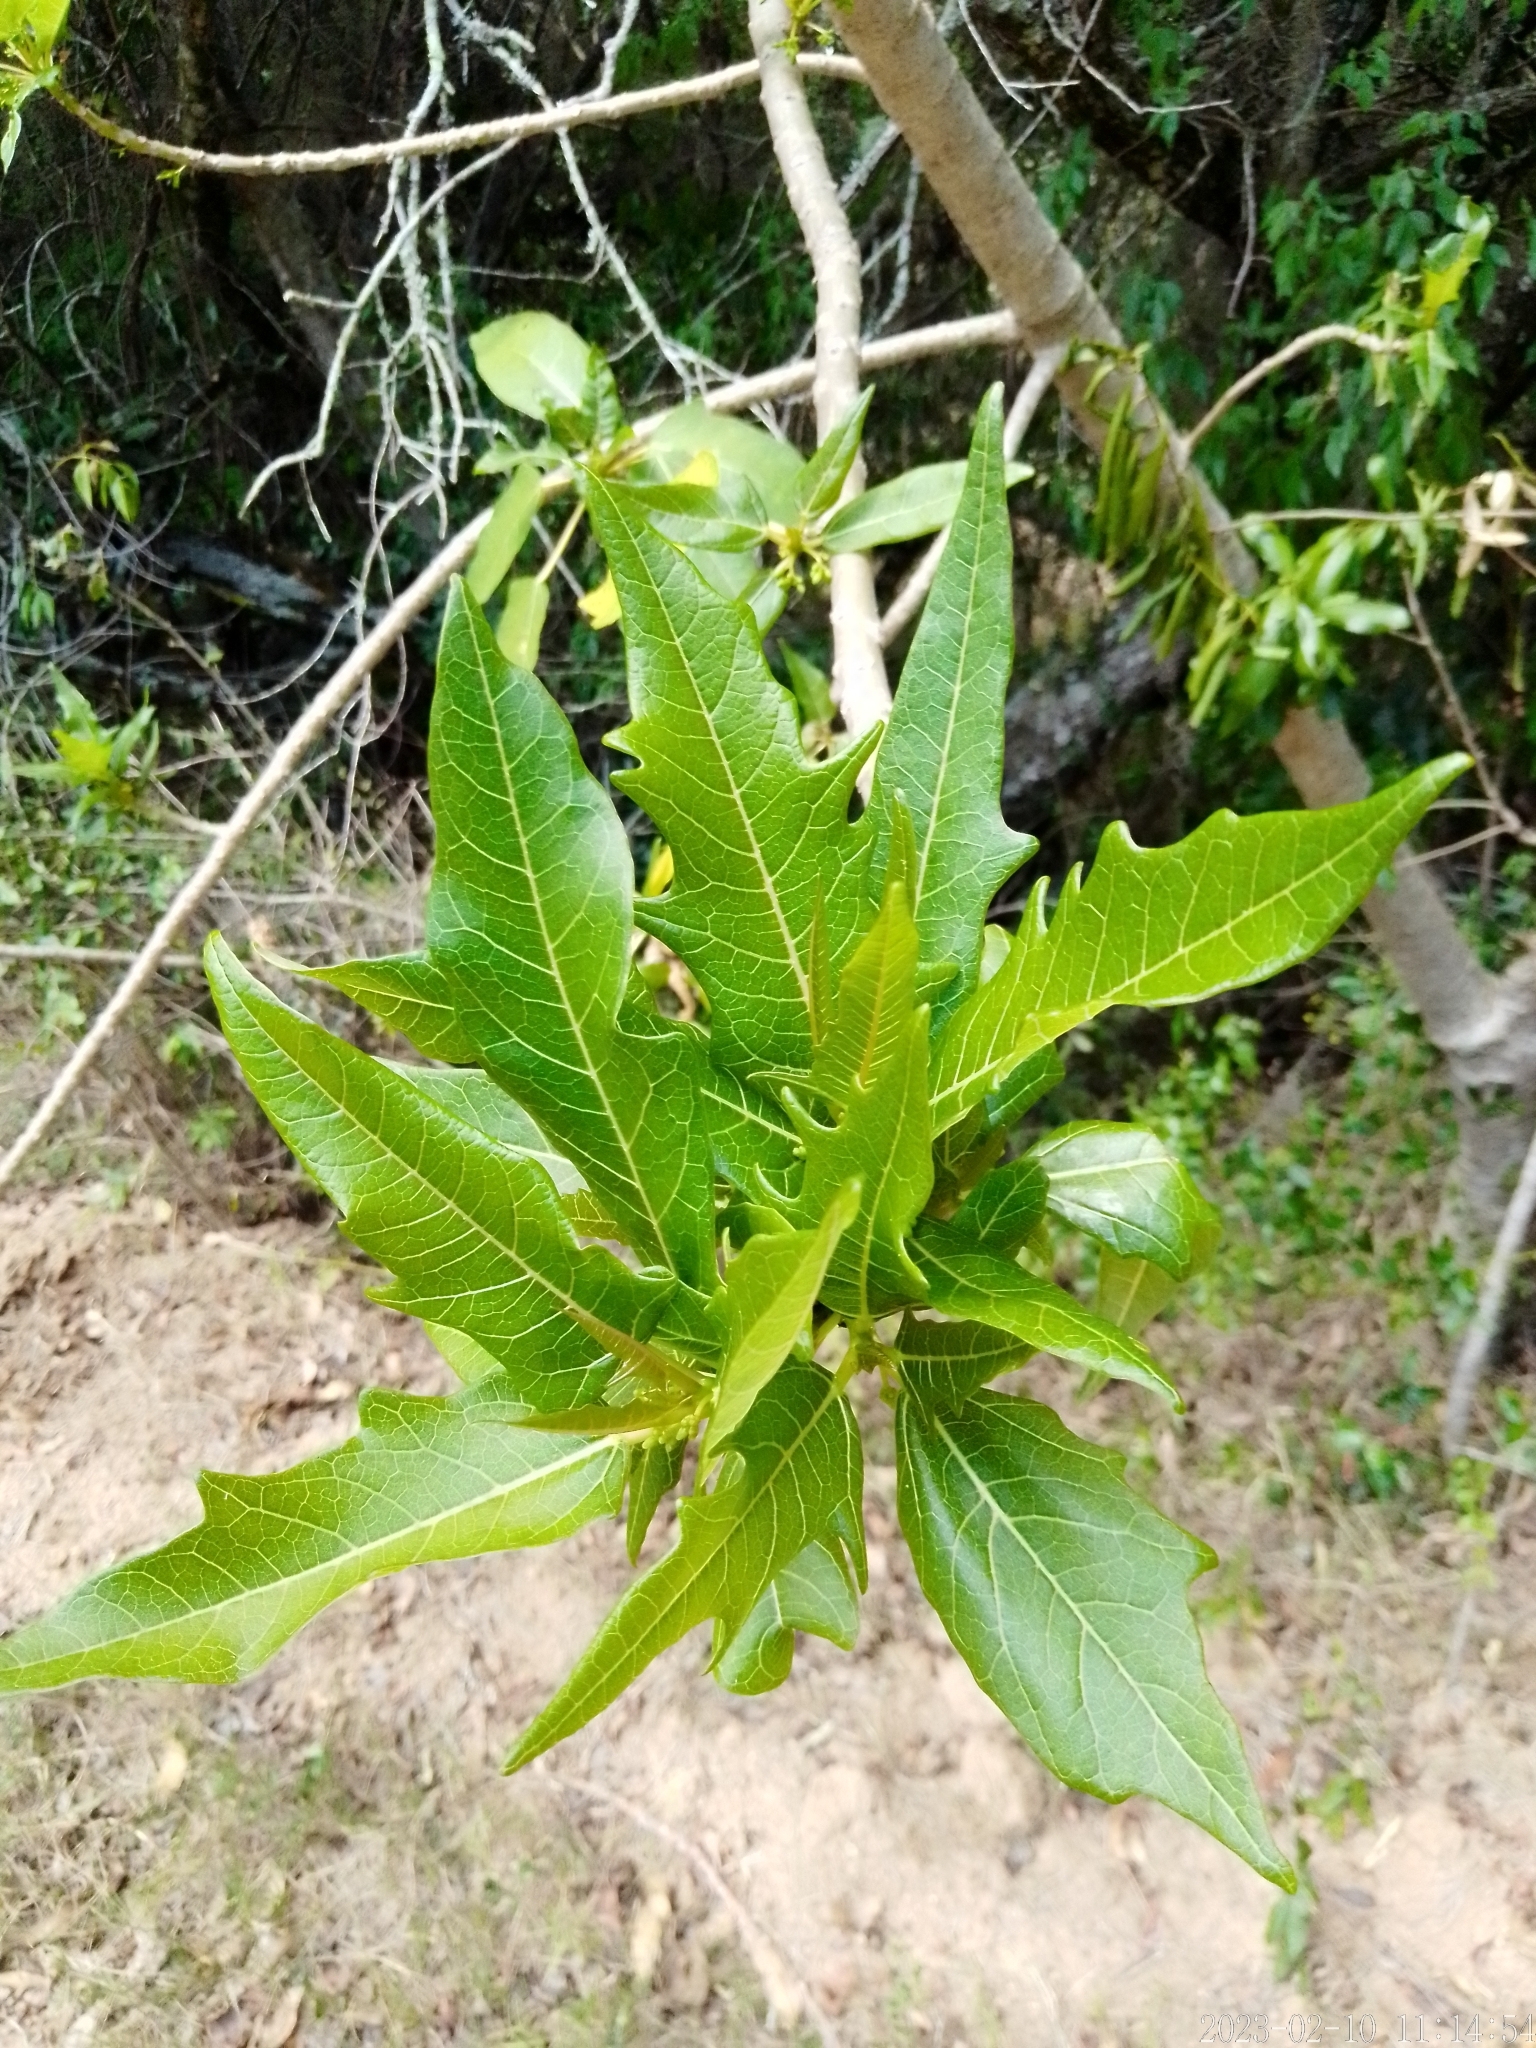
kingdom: Plantae
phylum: Tracheophyta
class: Magnoliopsida
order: Brassicales
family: Caricaceae
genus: Vasconcellea
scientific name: Vasconcellea quercifolia
